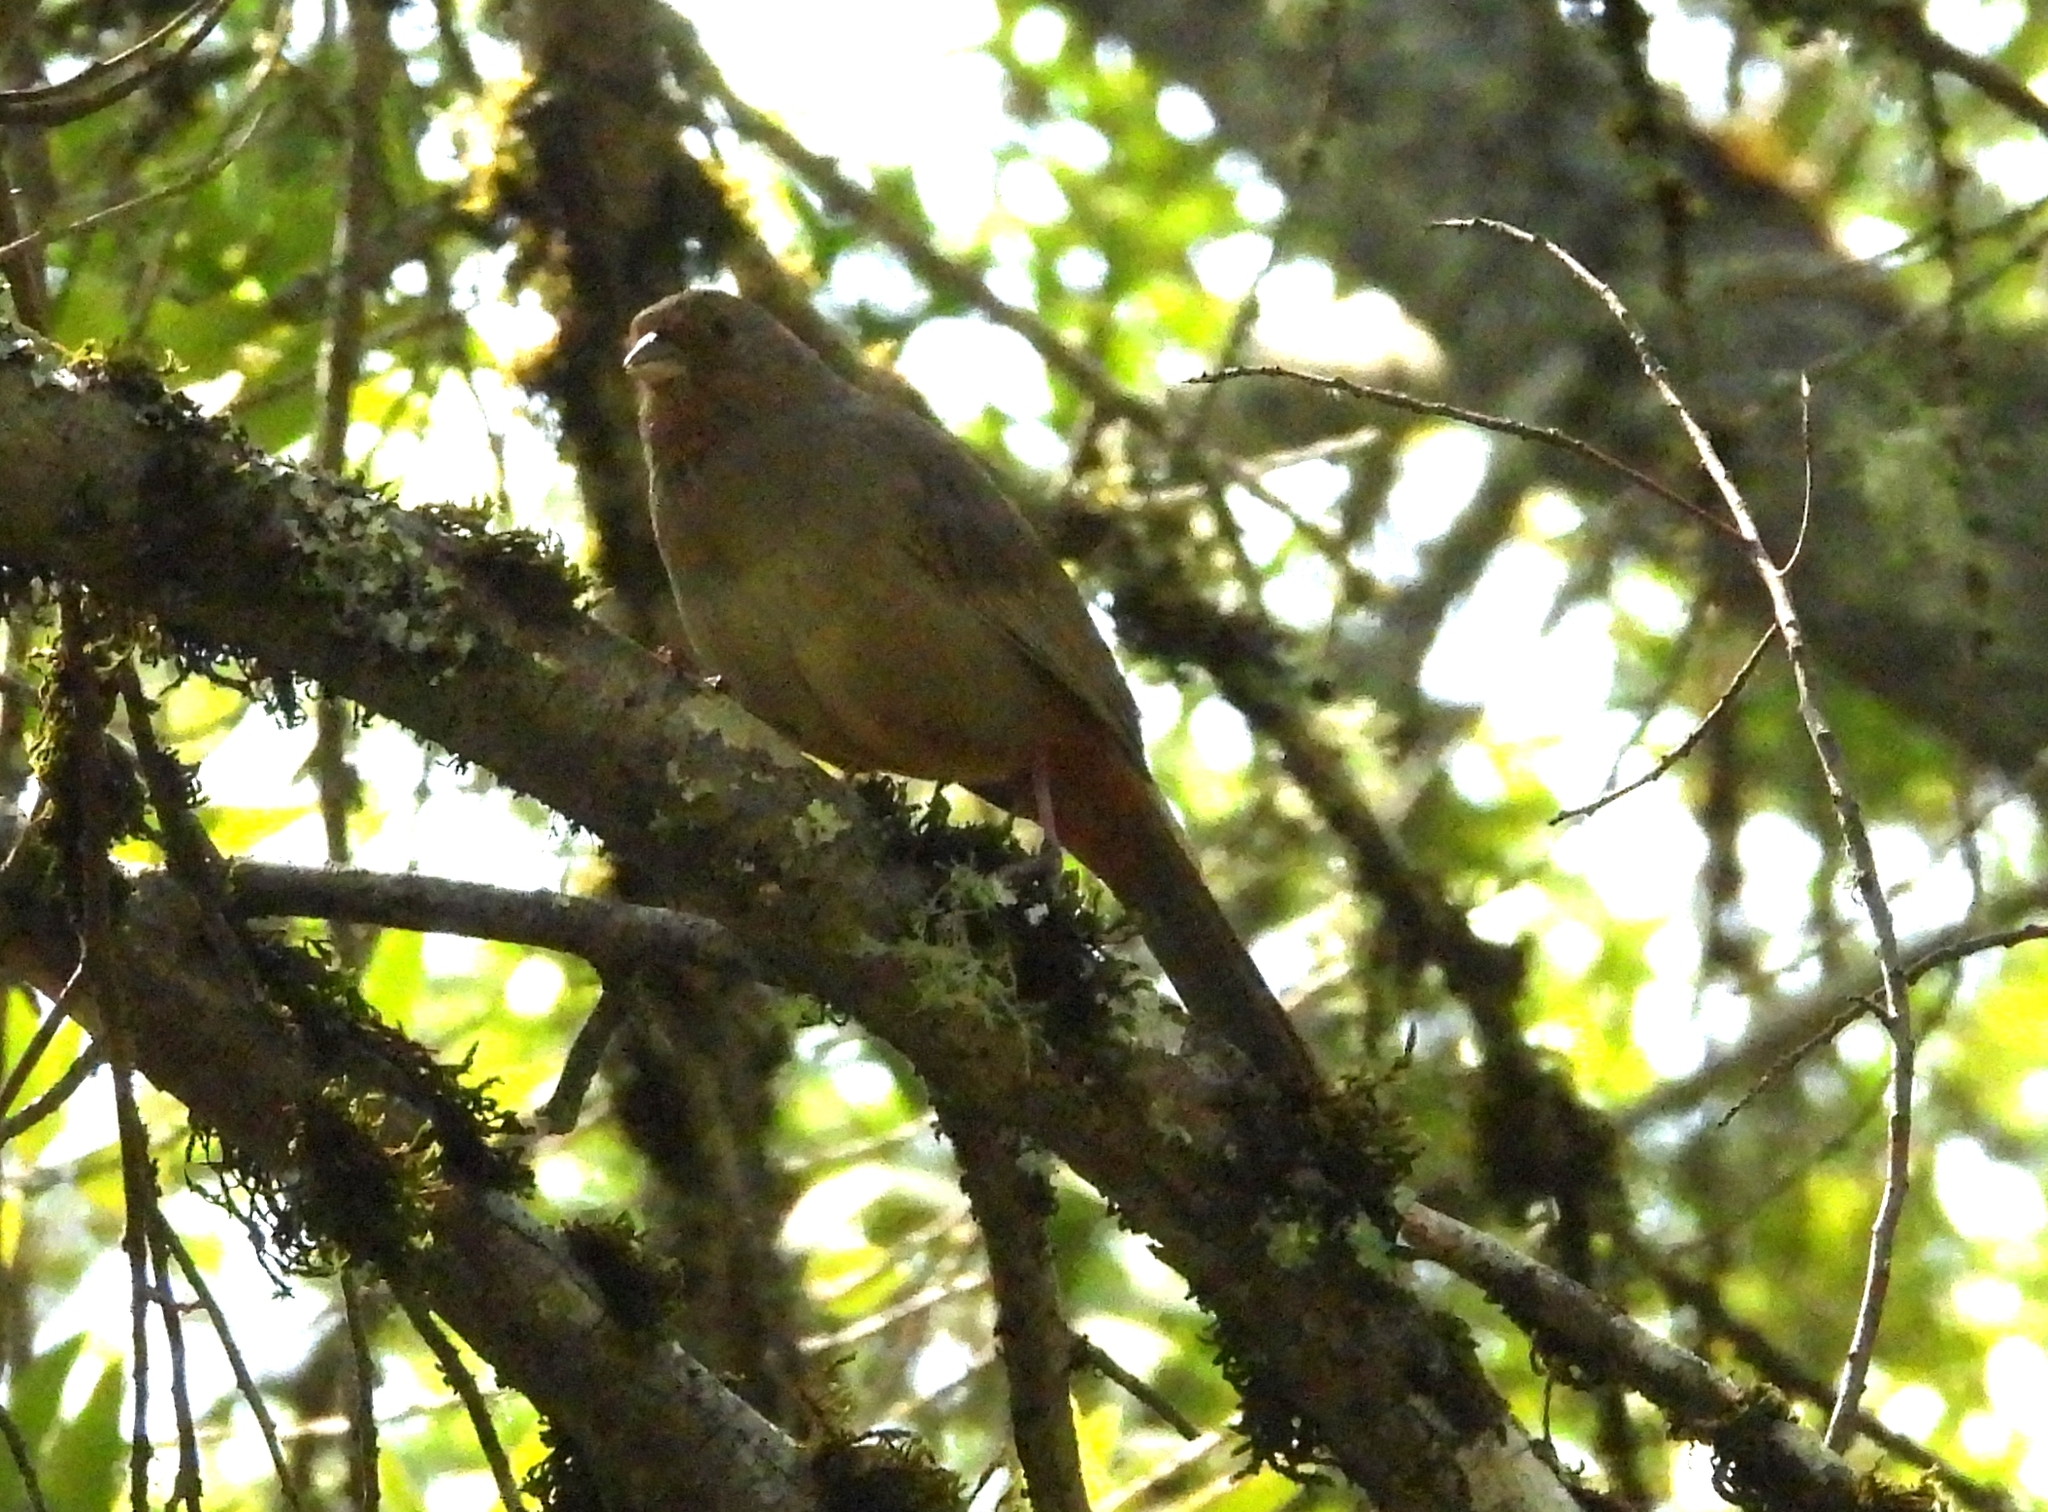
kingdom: Animalia
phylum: Chordata
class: Aves
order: Passeriformes
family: Passerellidae
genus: Melozone
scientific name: Melozone crissalis
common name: California towhee
